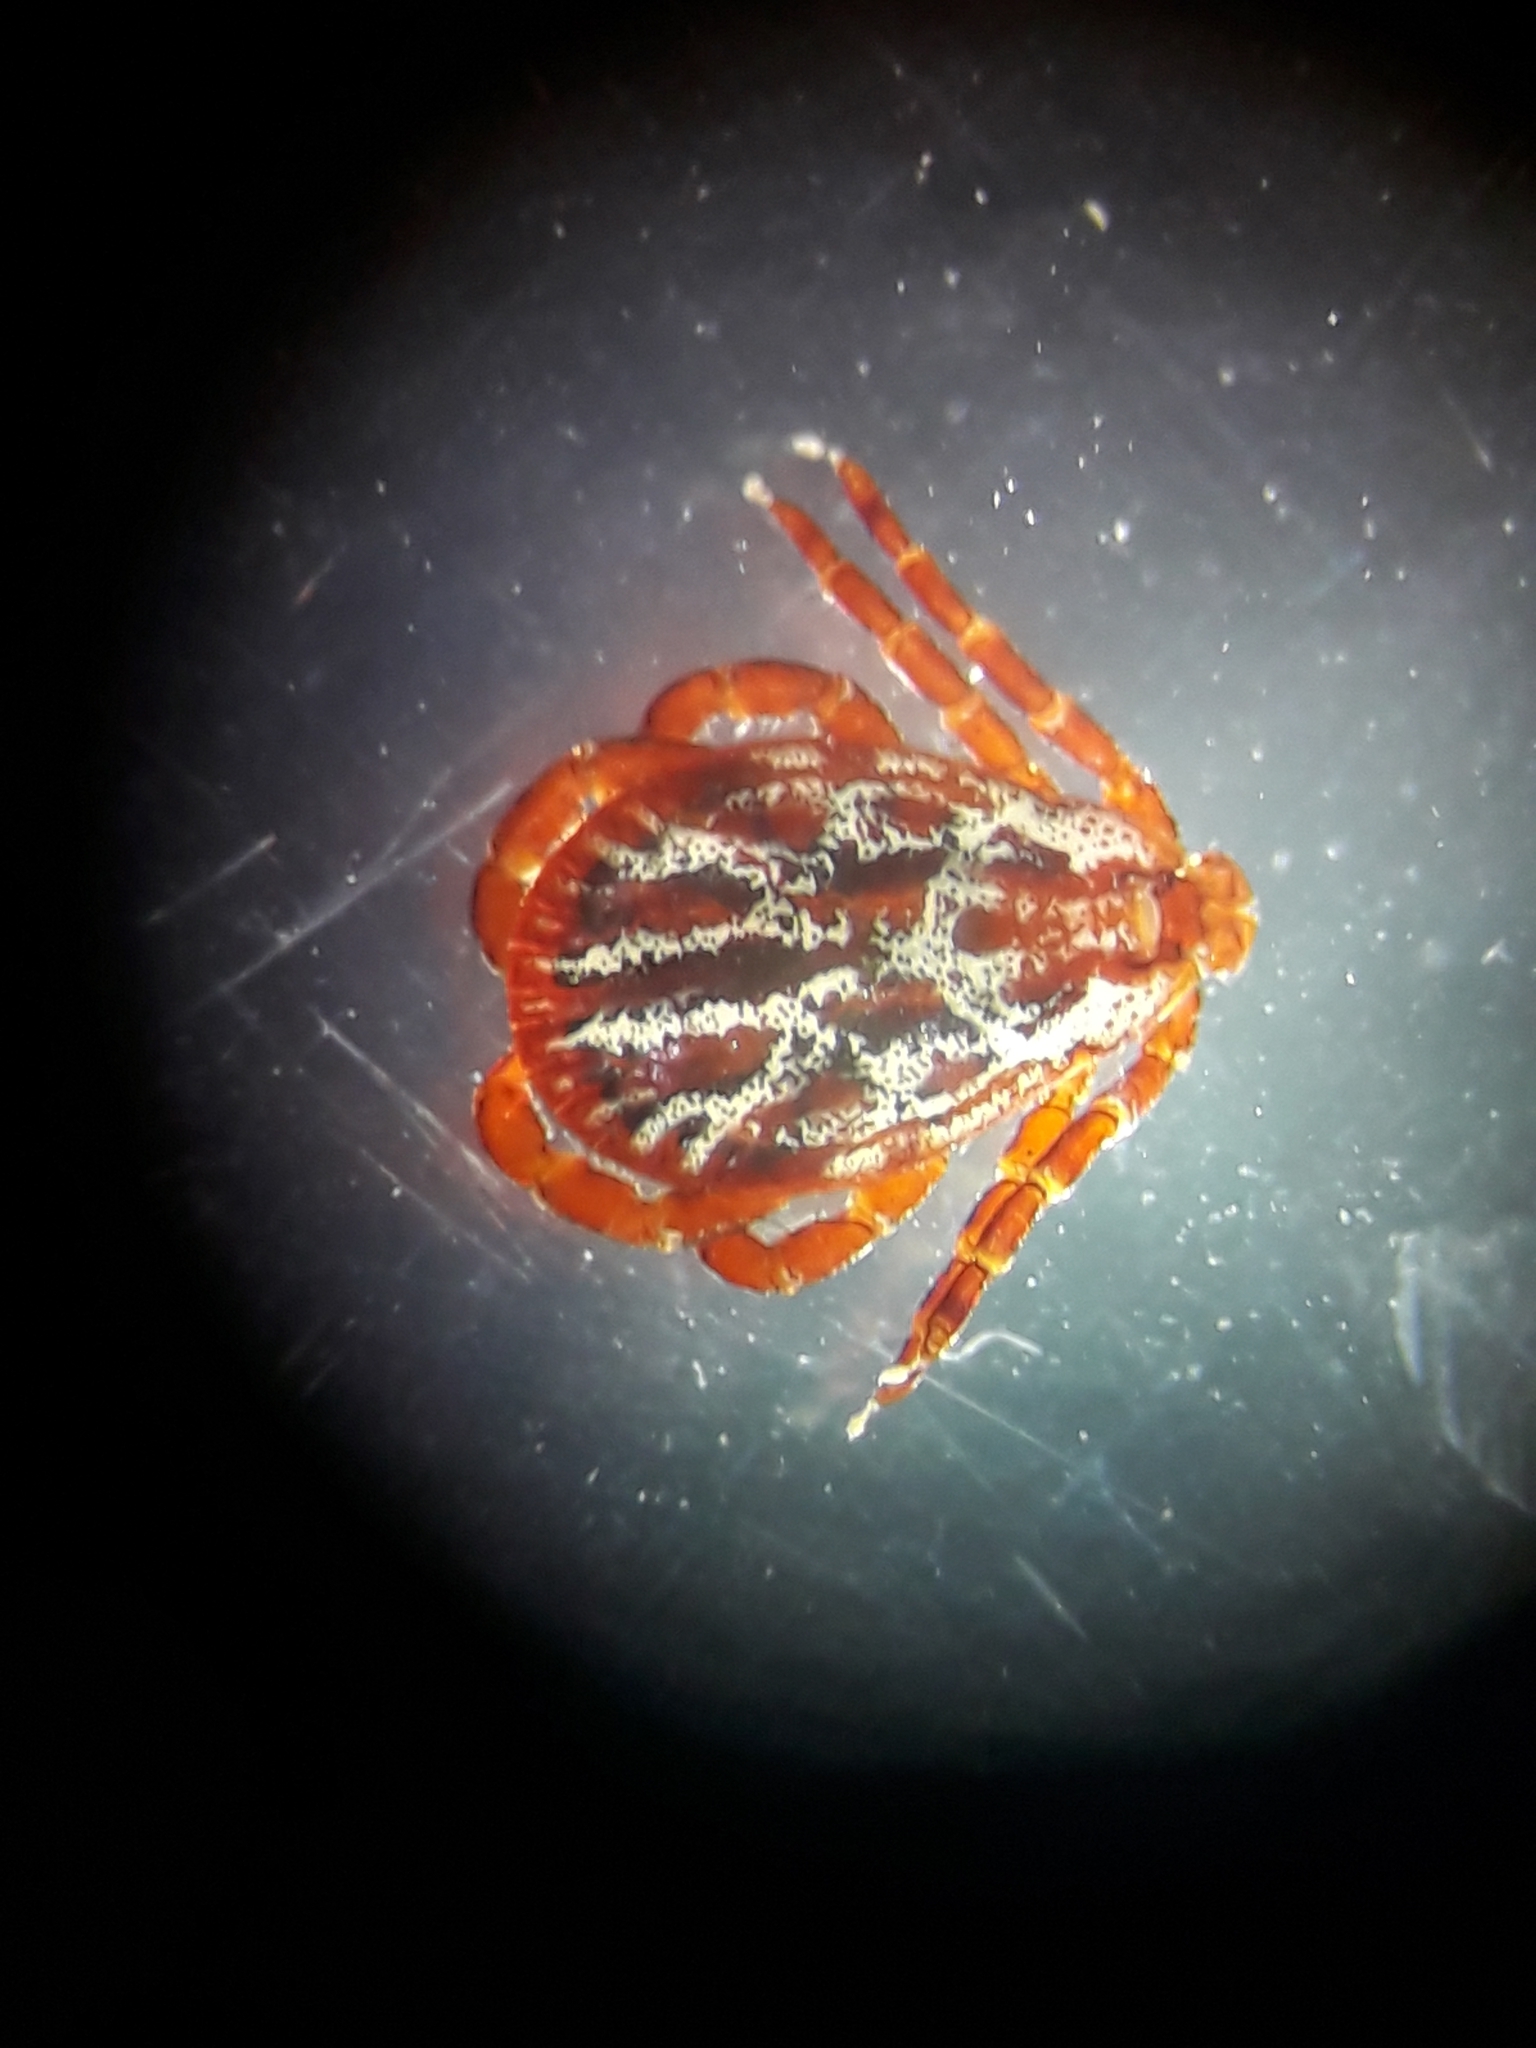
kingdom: Animalia
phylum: Arthropoda
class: Arachnida
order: Ixodida
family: Ixodidae
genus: Dermacentor
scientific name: Dermacentor reticulatus
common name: Ornate cow tick
